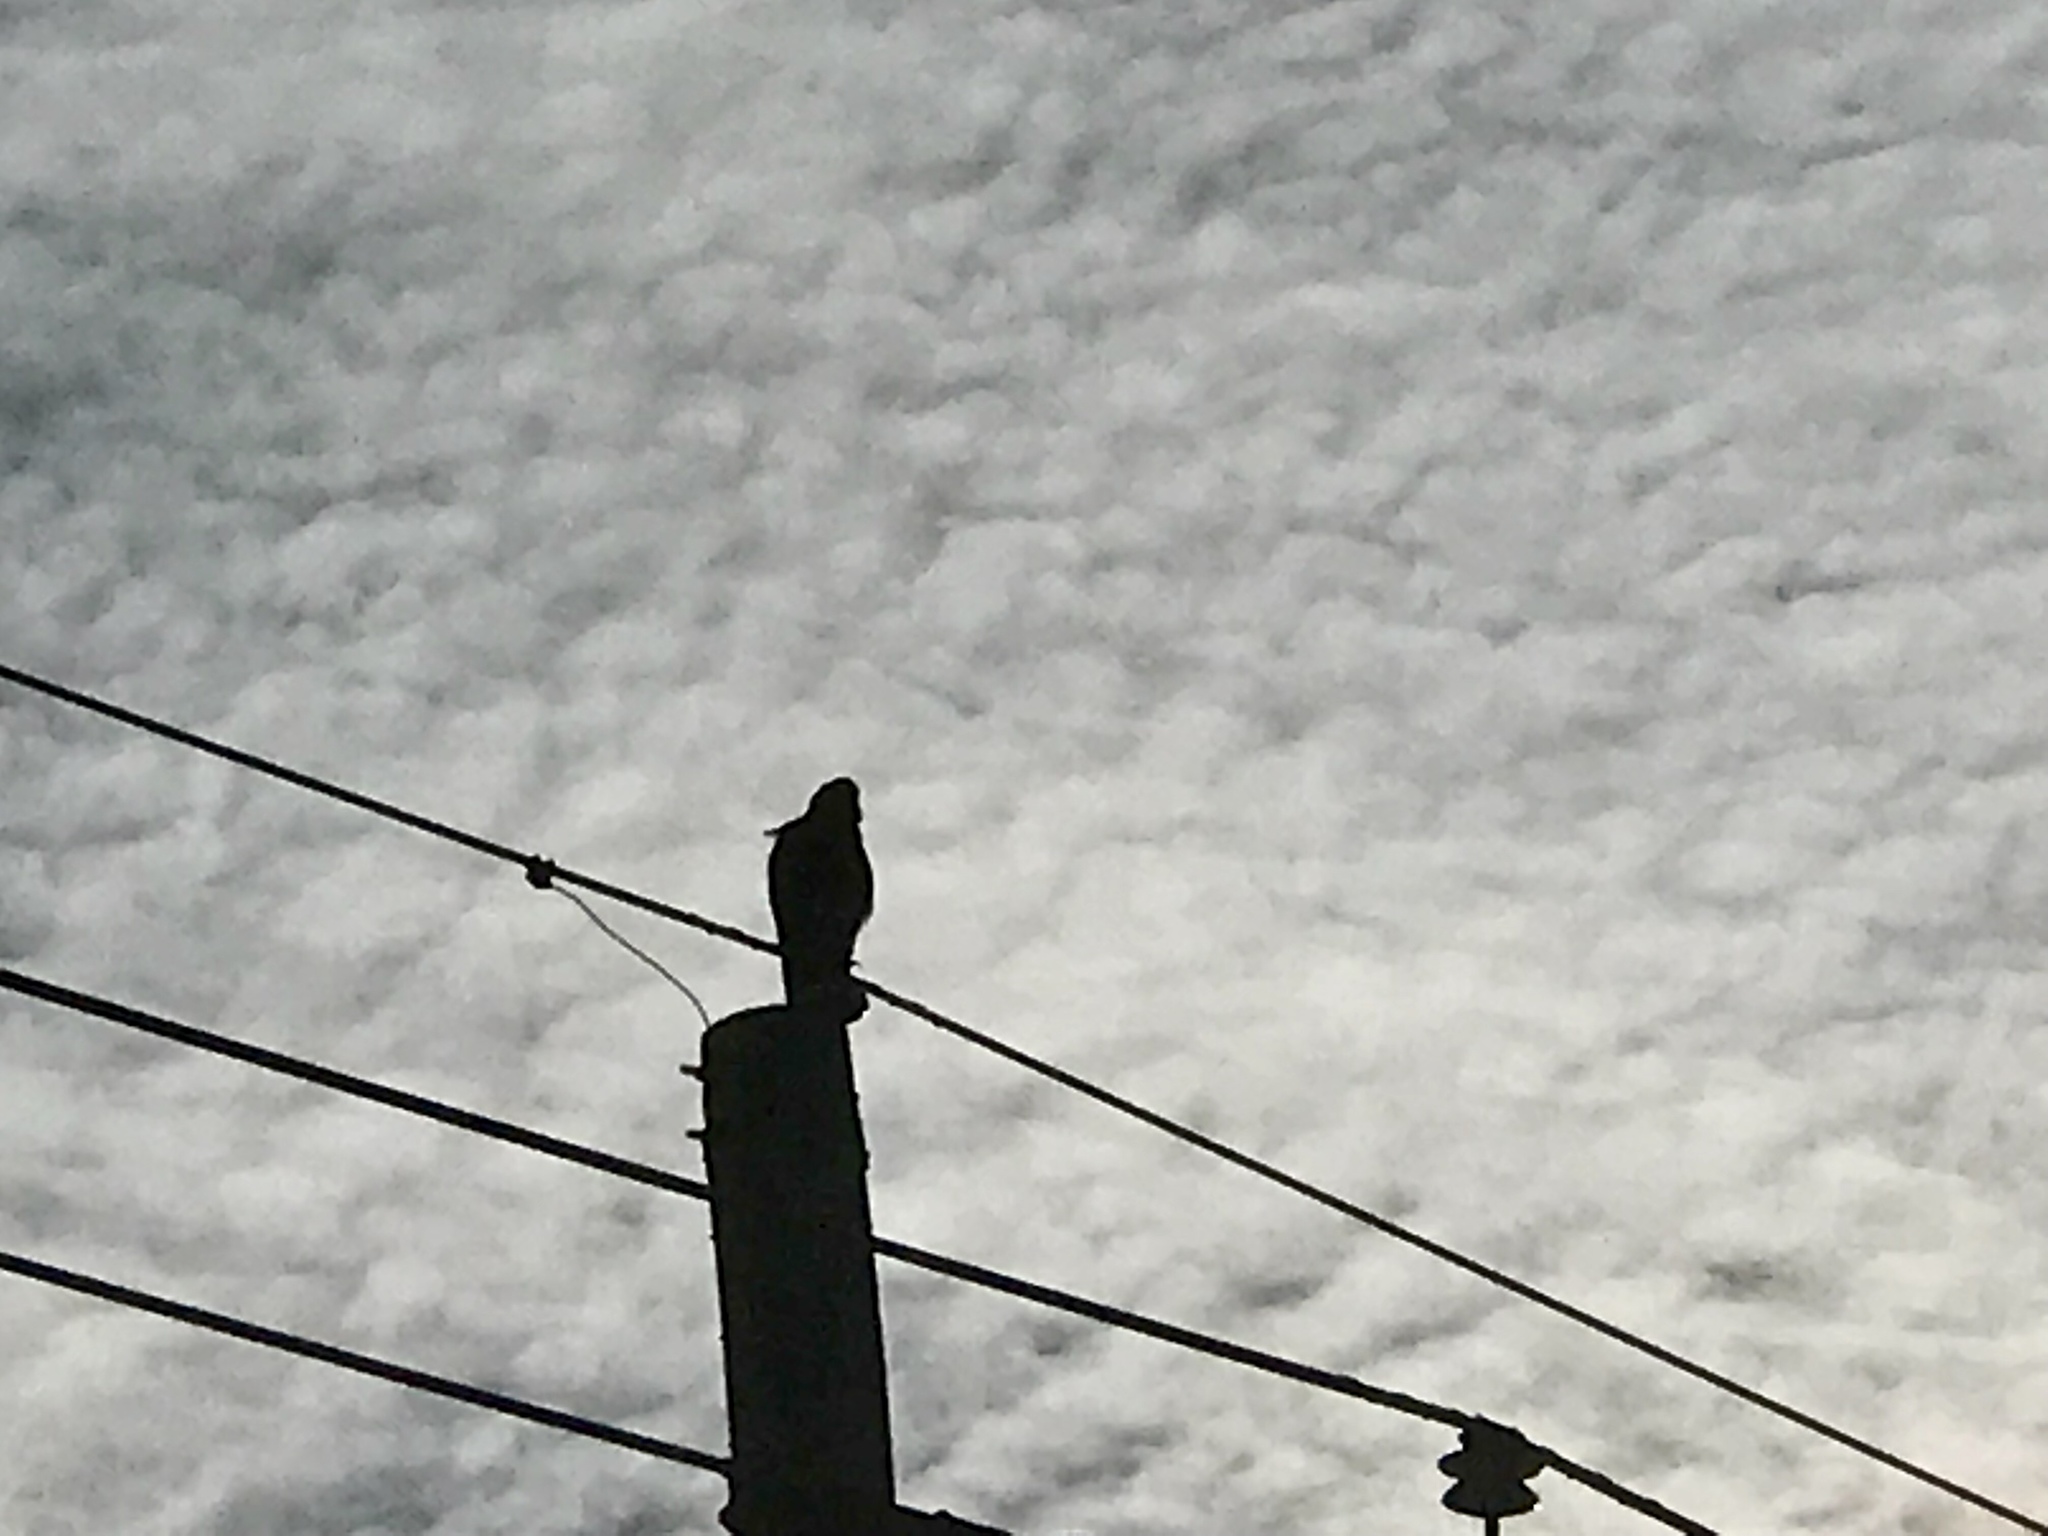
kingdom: Animalia
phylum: Chordata
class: Aves
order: Accipitriformes
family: Accipitridae
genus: Buteo
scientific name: Buteo jamaicensis
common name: Red-tailed hawk
